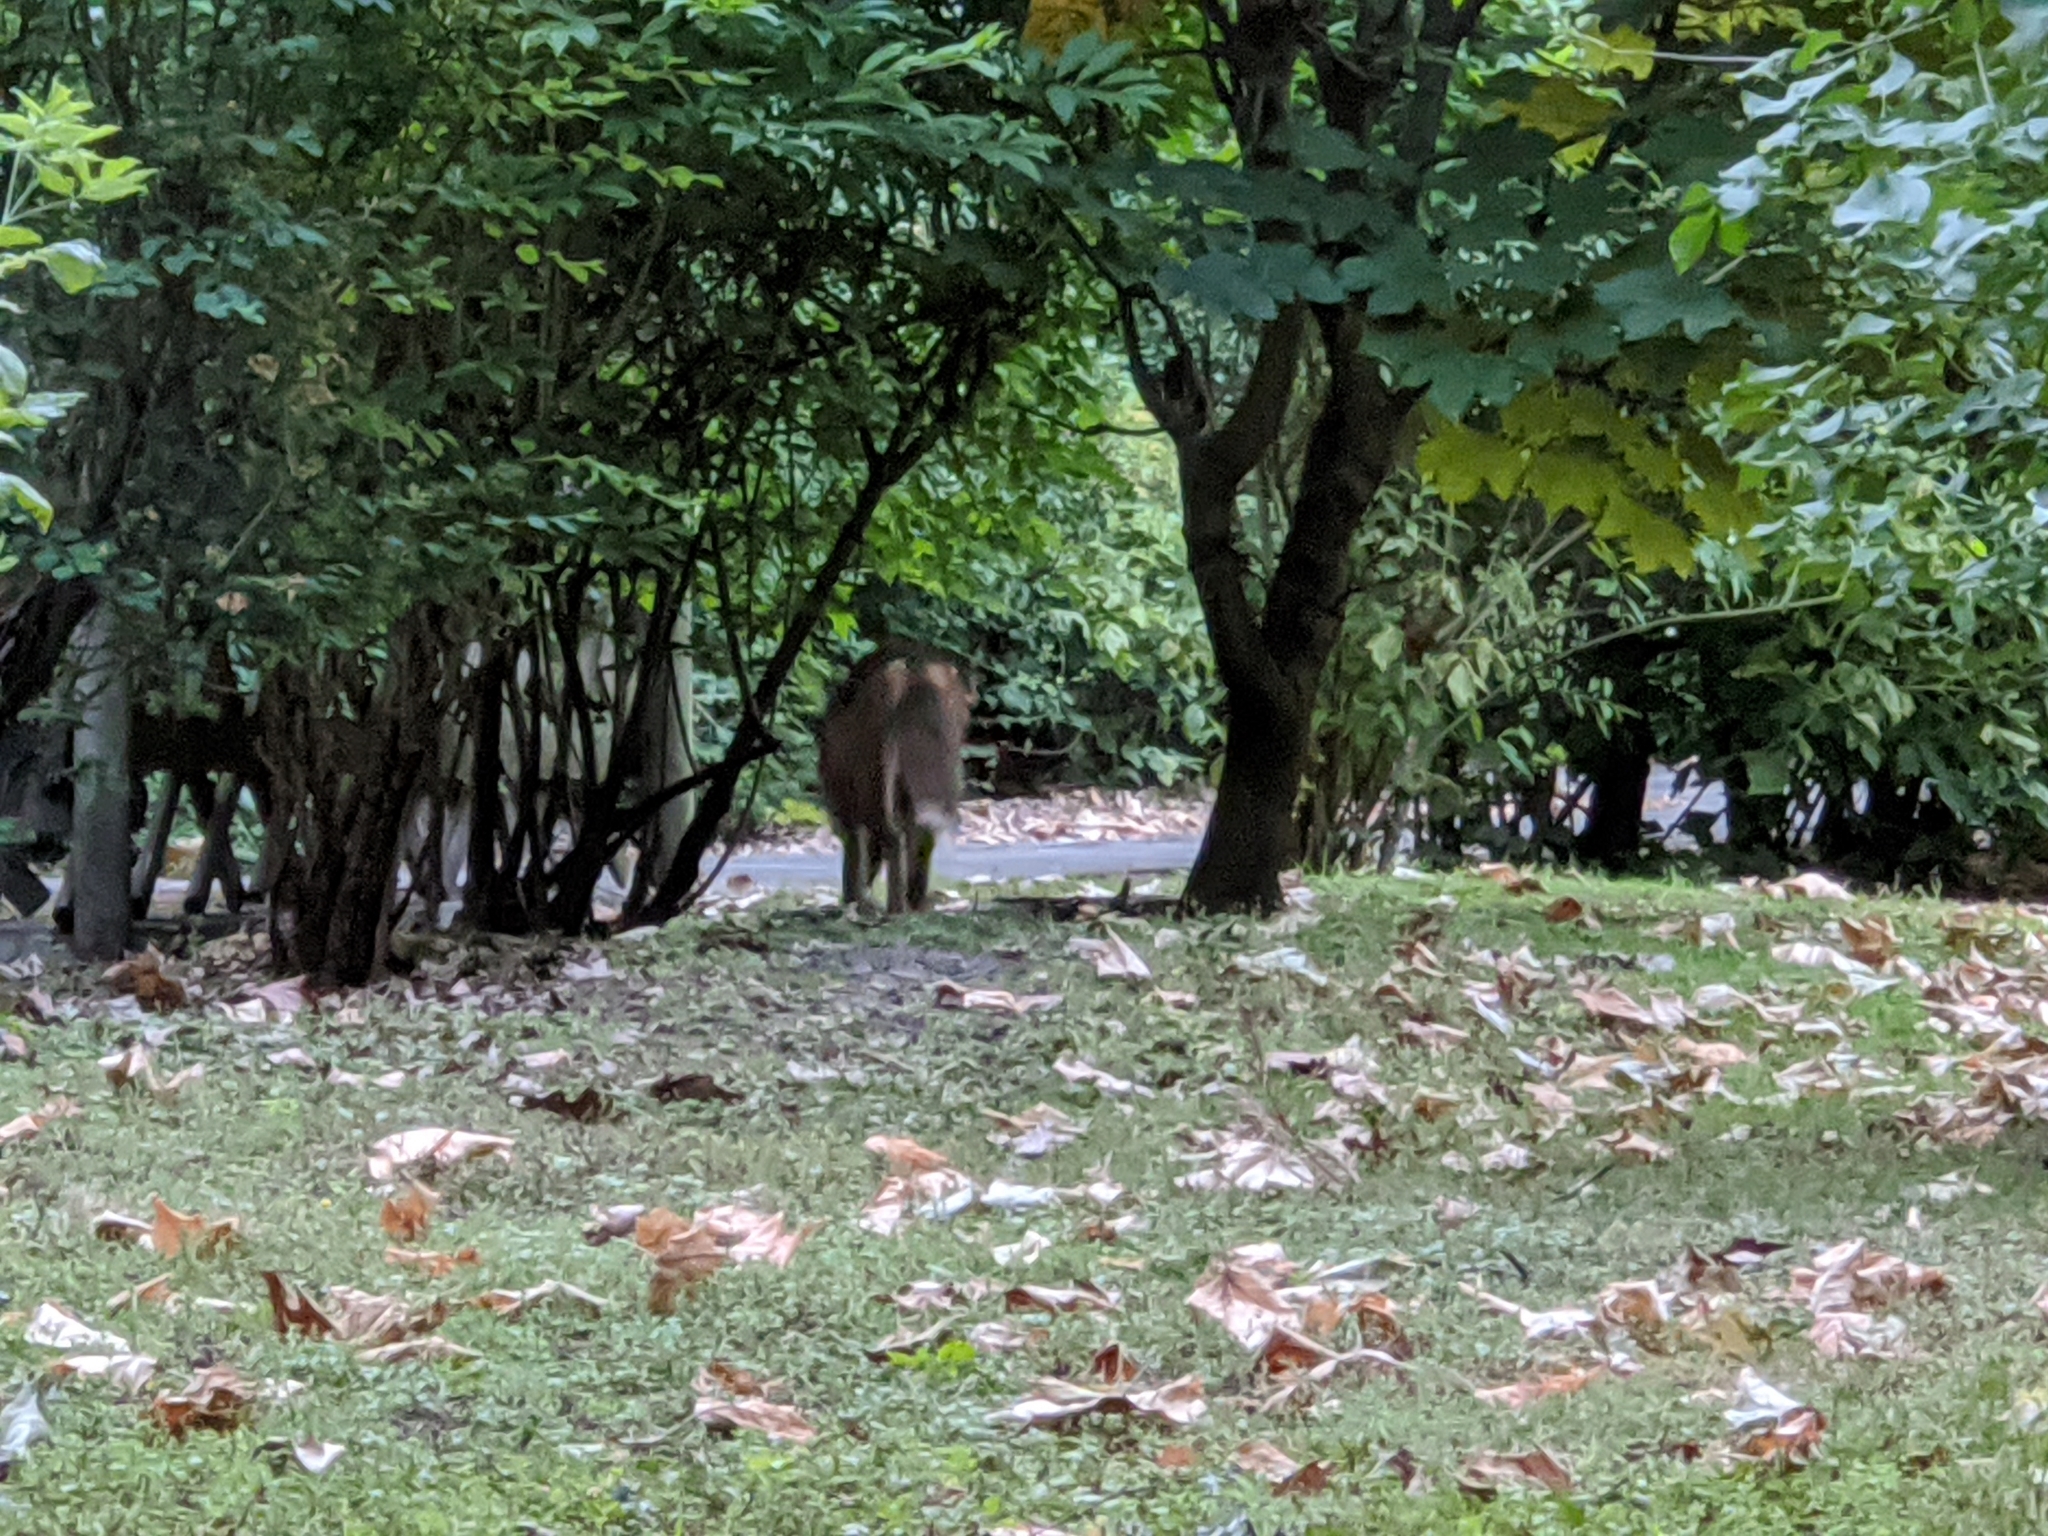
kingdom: Animalia
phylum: Chordata
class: Mammalia
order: Carnivora
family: Canidae
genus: Vulpes
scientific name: Vulpes vulpes
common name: Red fox
